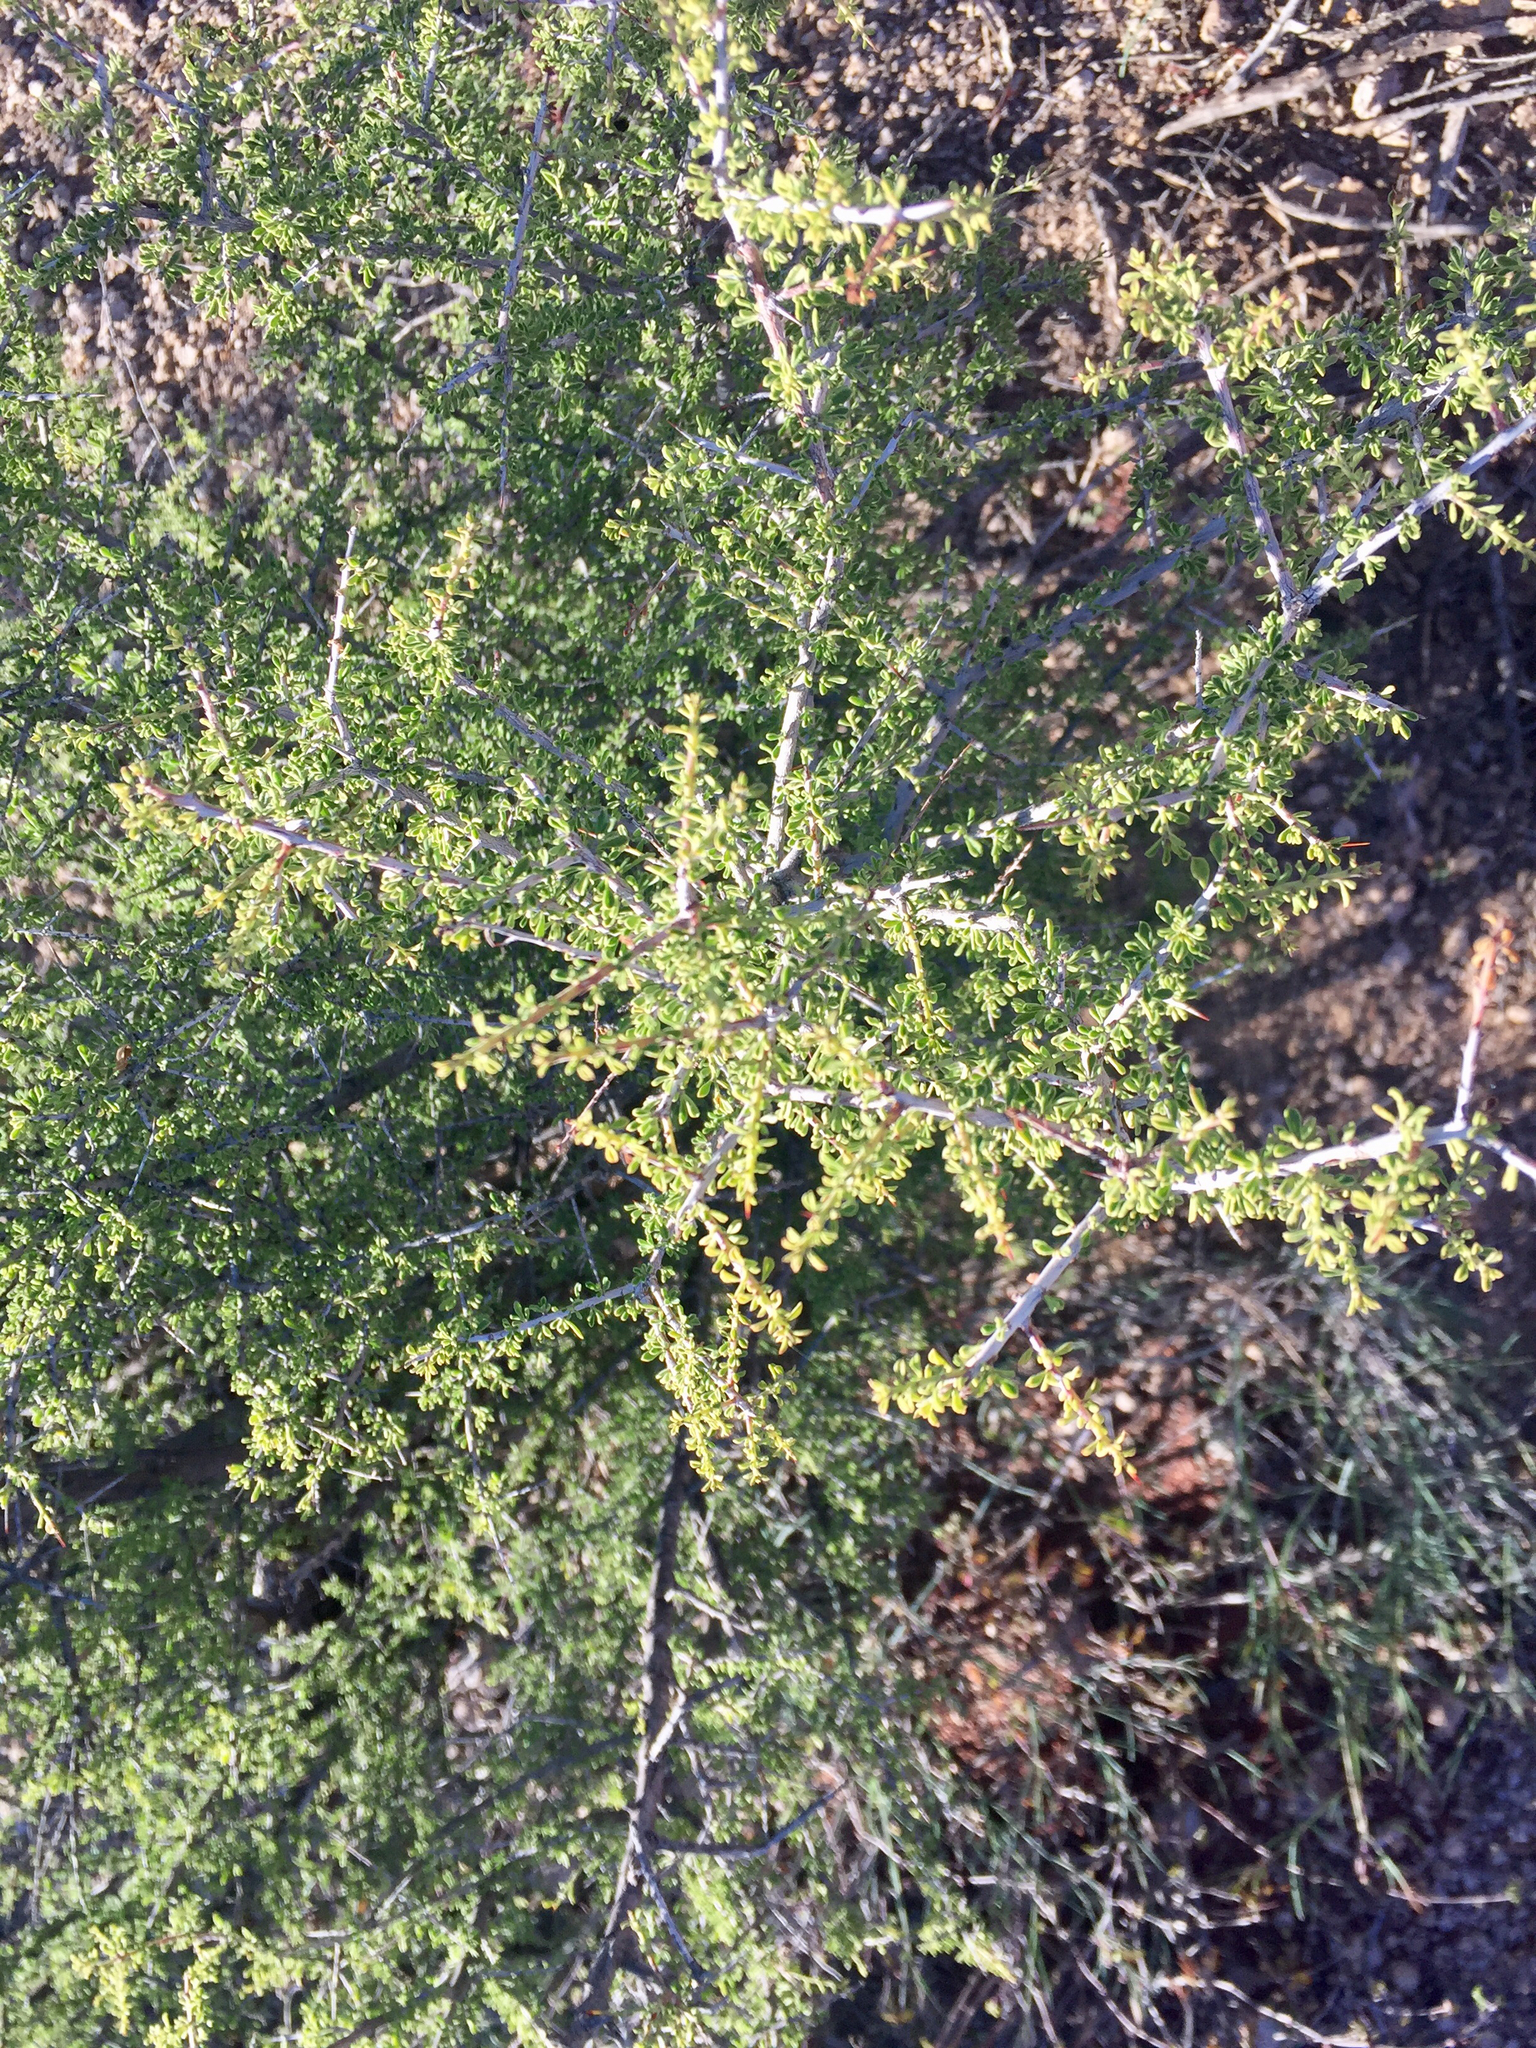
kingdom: Plantae
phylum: Tracheophyta
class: Magnoliopsida
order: Solanales
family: Solanaceae
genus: Lycium
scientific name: Lycium andersonii
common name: Water-jacket
